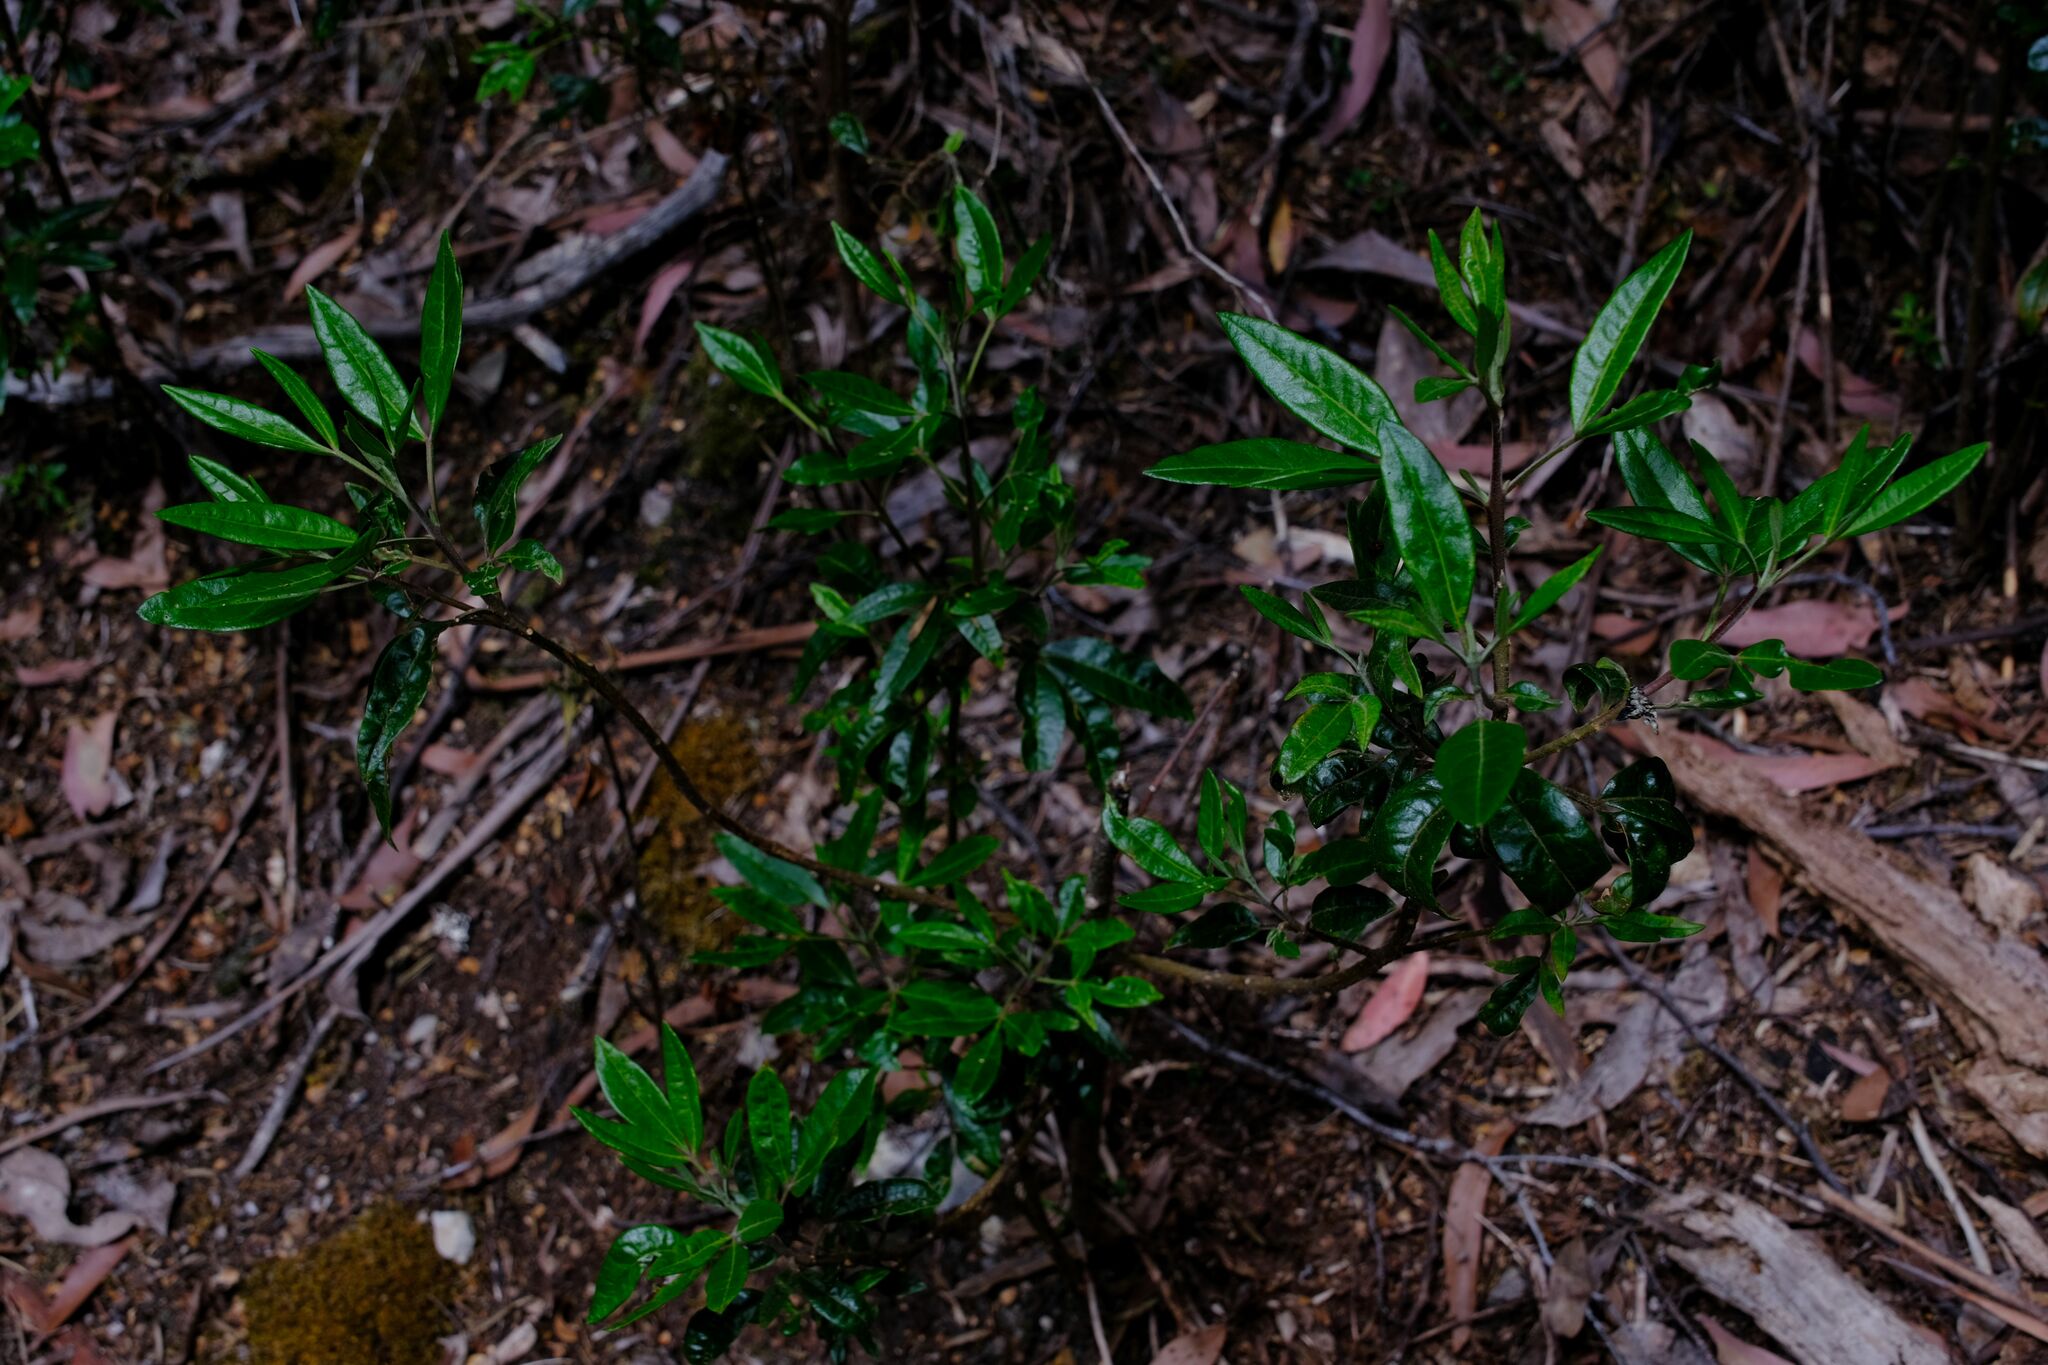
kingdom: Plantae
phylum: Tracheophyta
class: Magnoliopsida
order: Sapindales
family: Rutaceae
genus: Zieria
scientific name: Zieria arborescens
